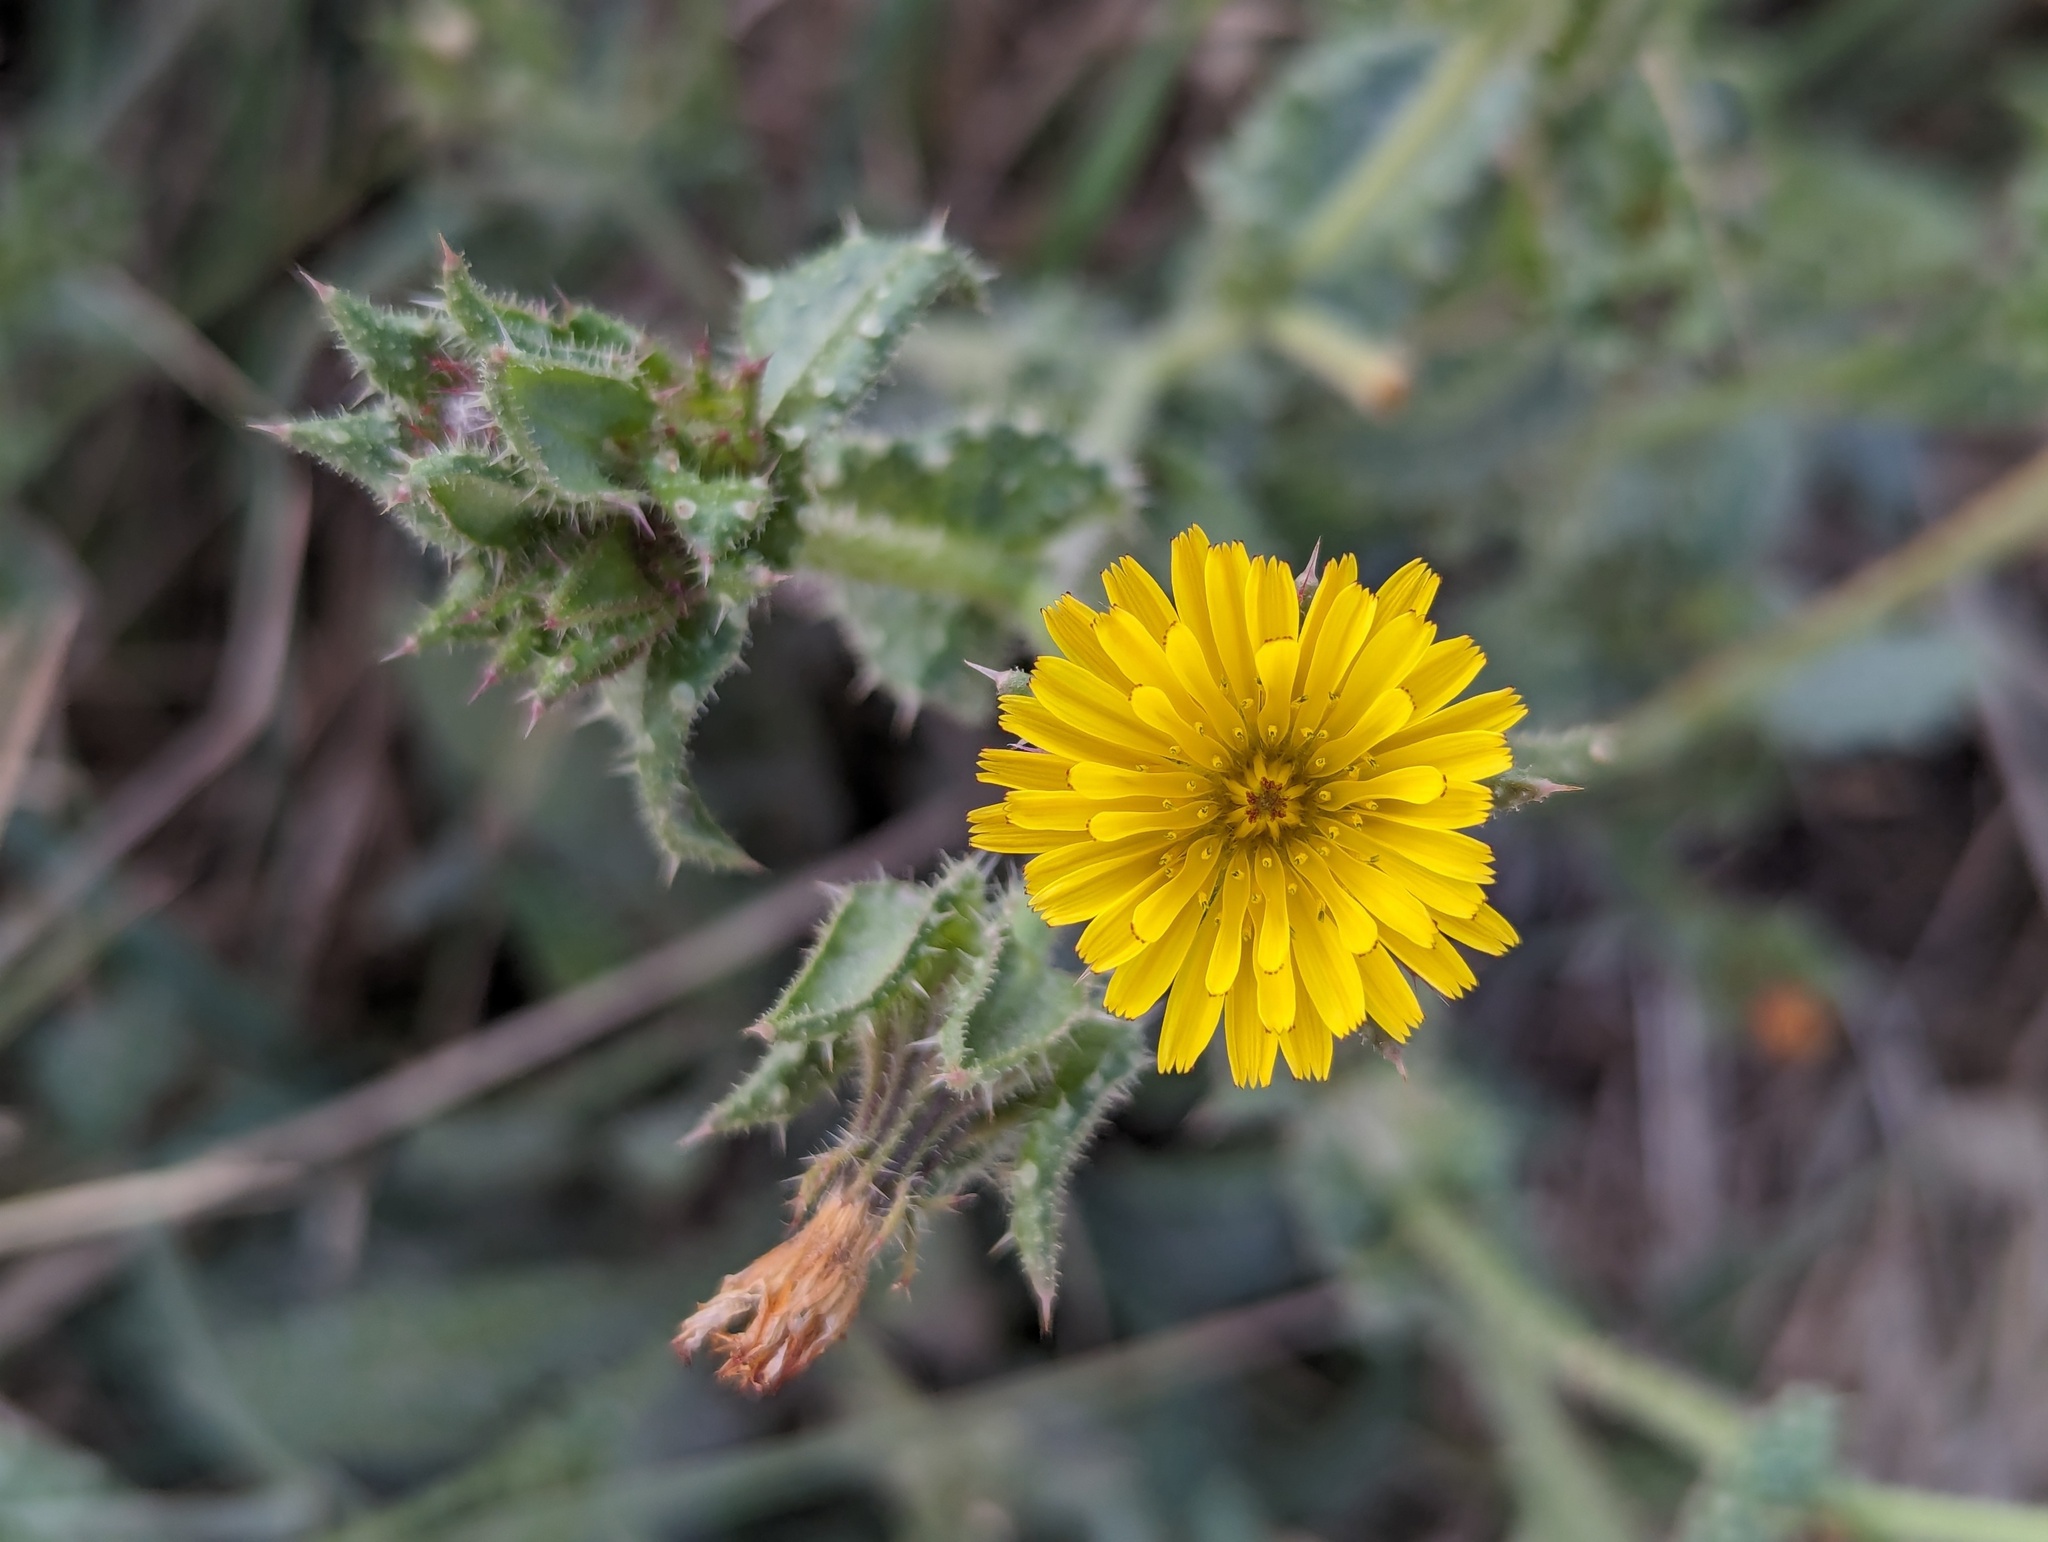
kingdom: Plantae
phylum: Tracheophyta
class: Magnoliopsida
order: Asterales
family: Asteraceae
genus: Helminthotheca
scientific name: Helminthotheca echioides
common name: Ox-tongue
